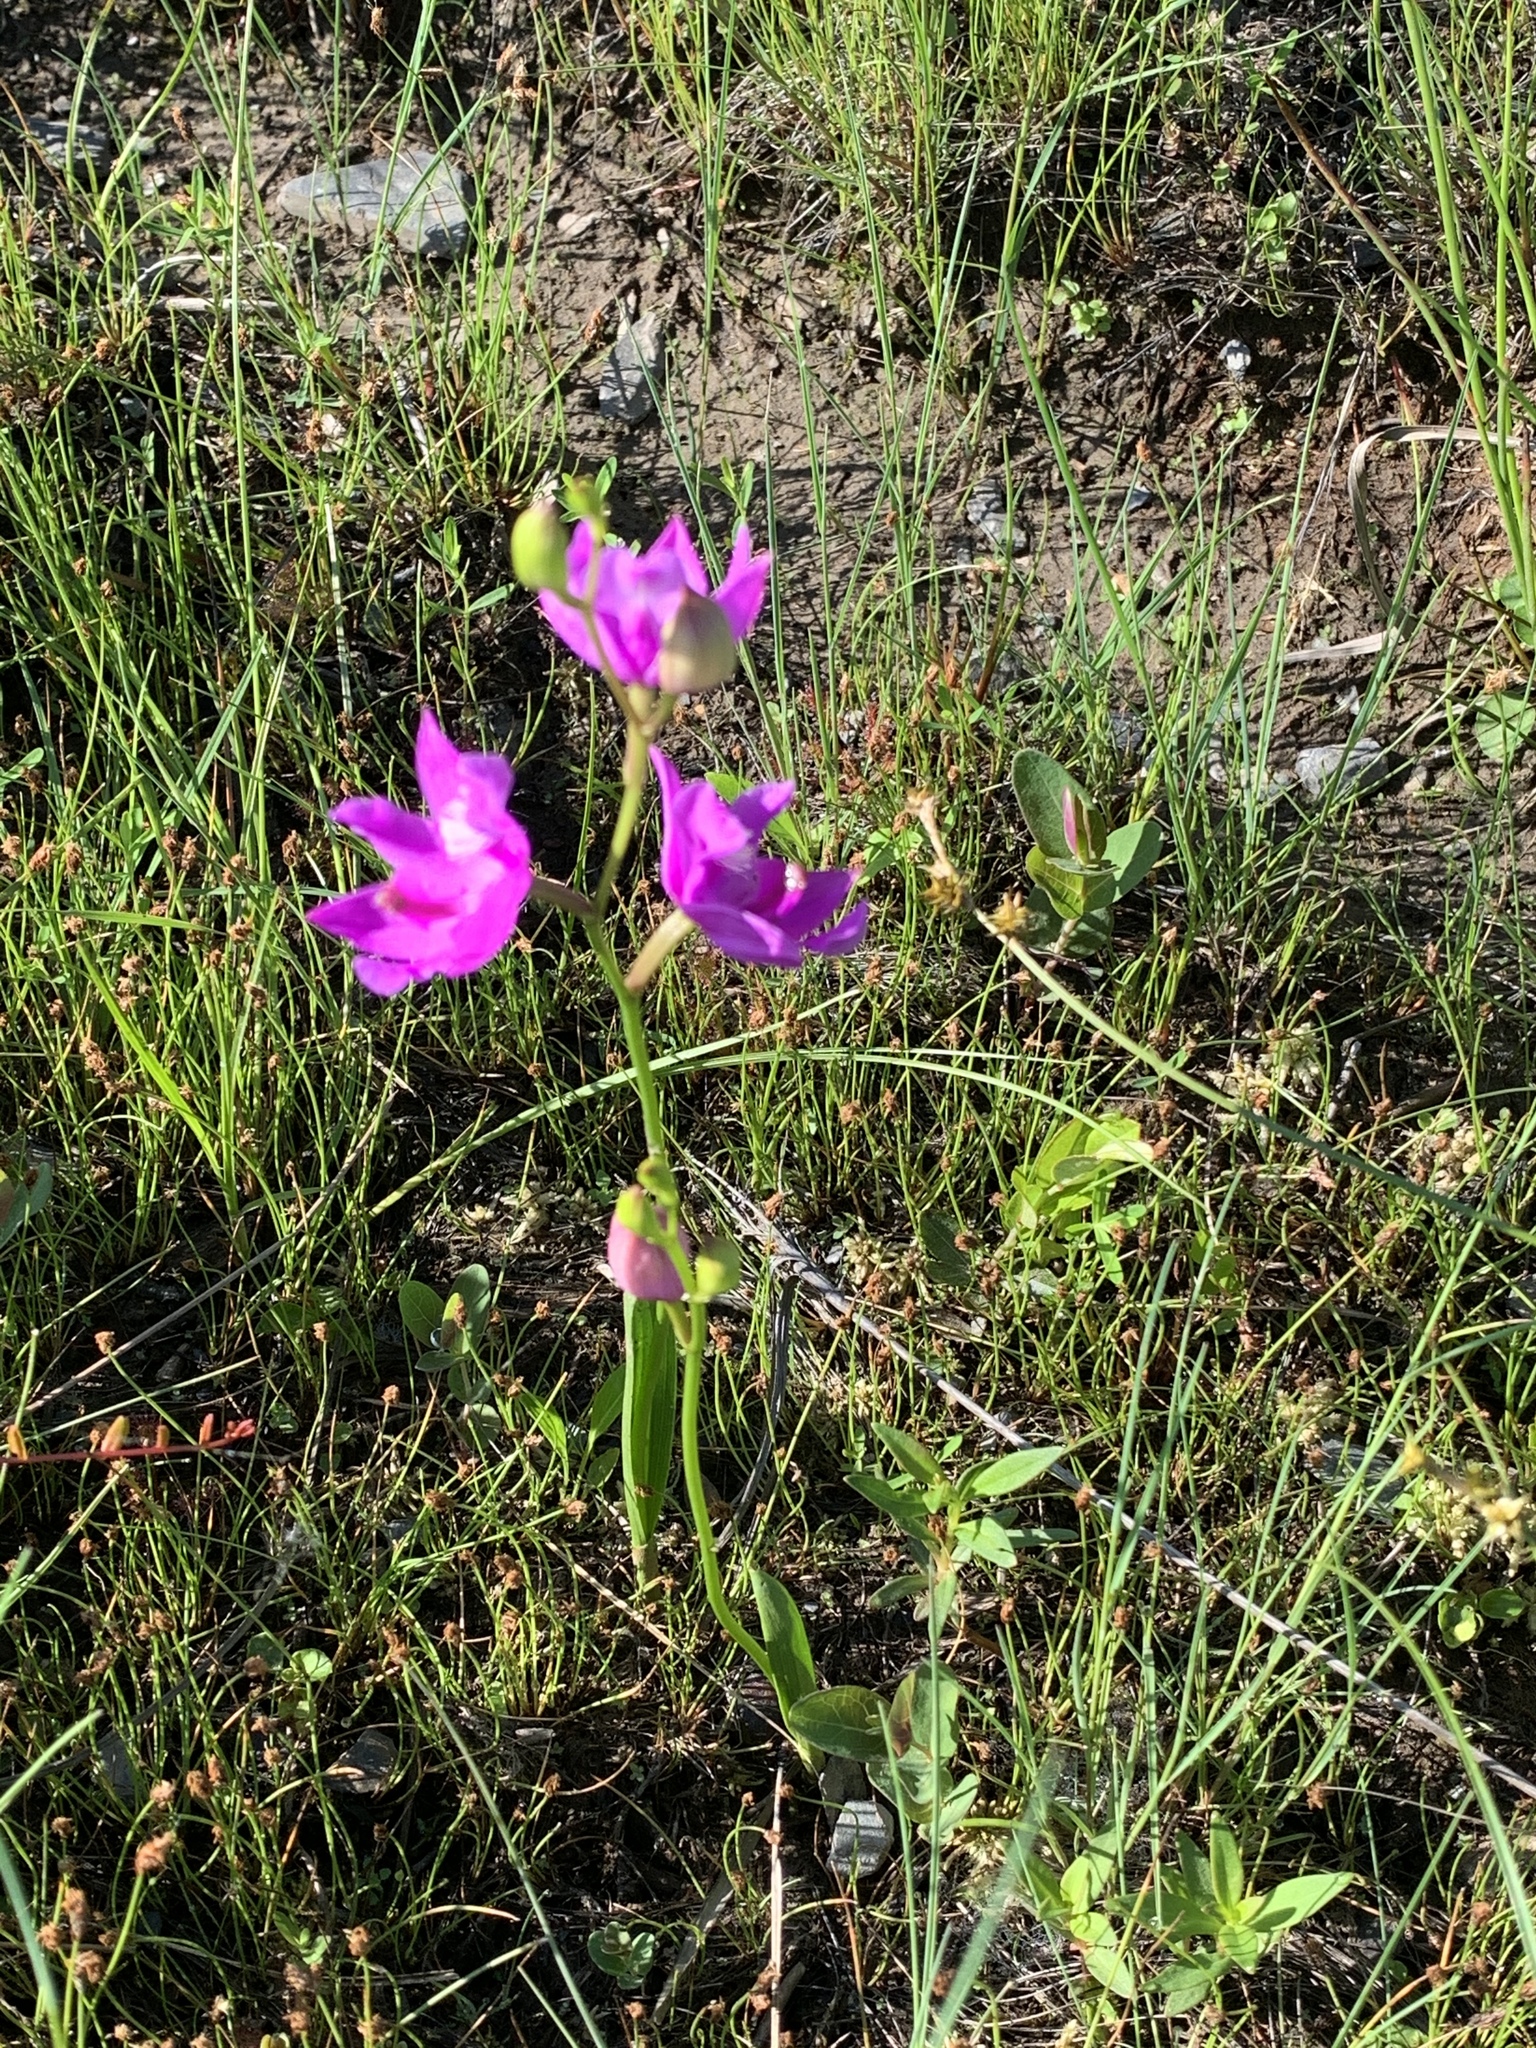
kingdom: Plantae
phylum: Tracheophyta
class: Liliopsida
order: Asparagales
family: Orchidaceae
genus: Calopogon
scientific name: Calopogon tuberosus
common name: Grass-pink
